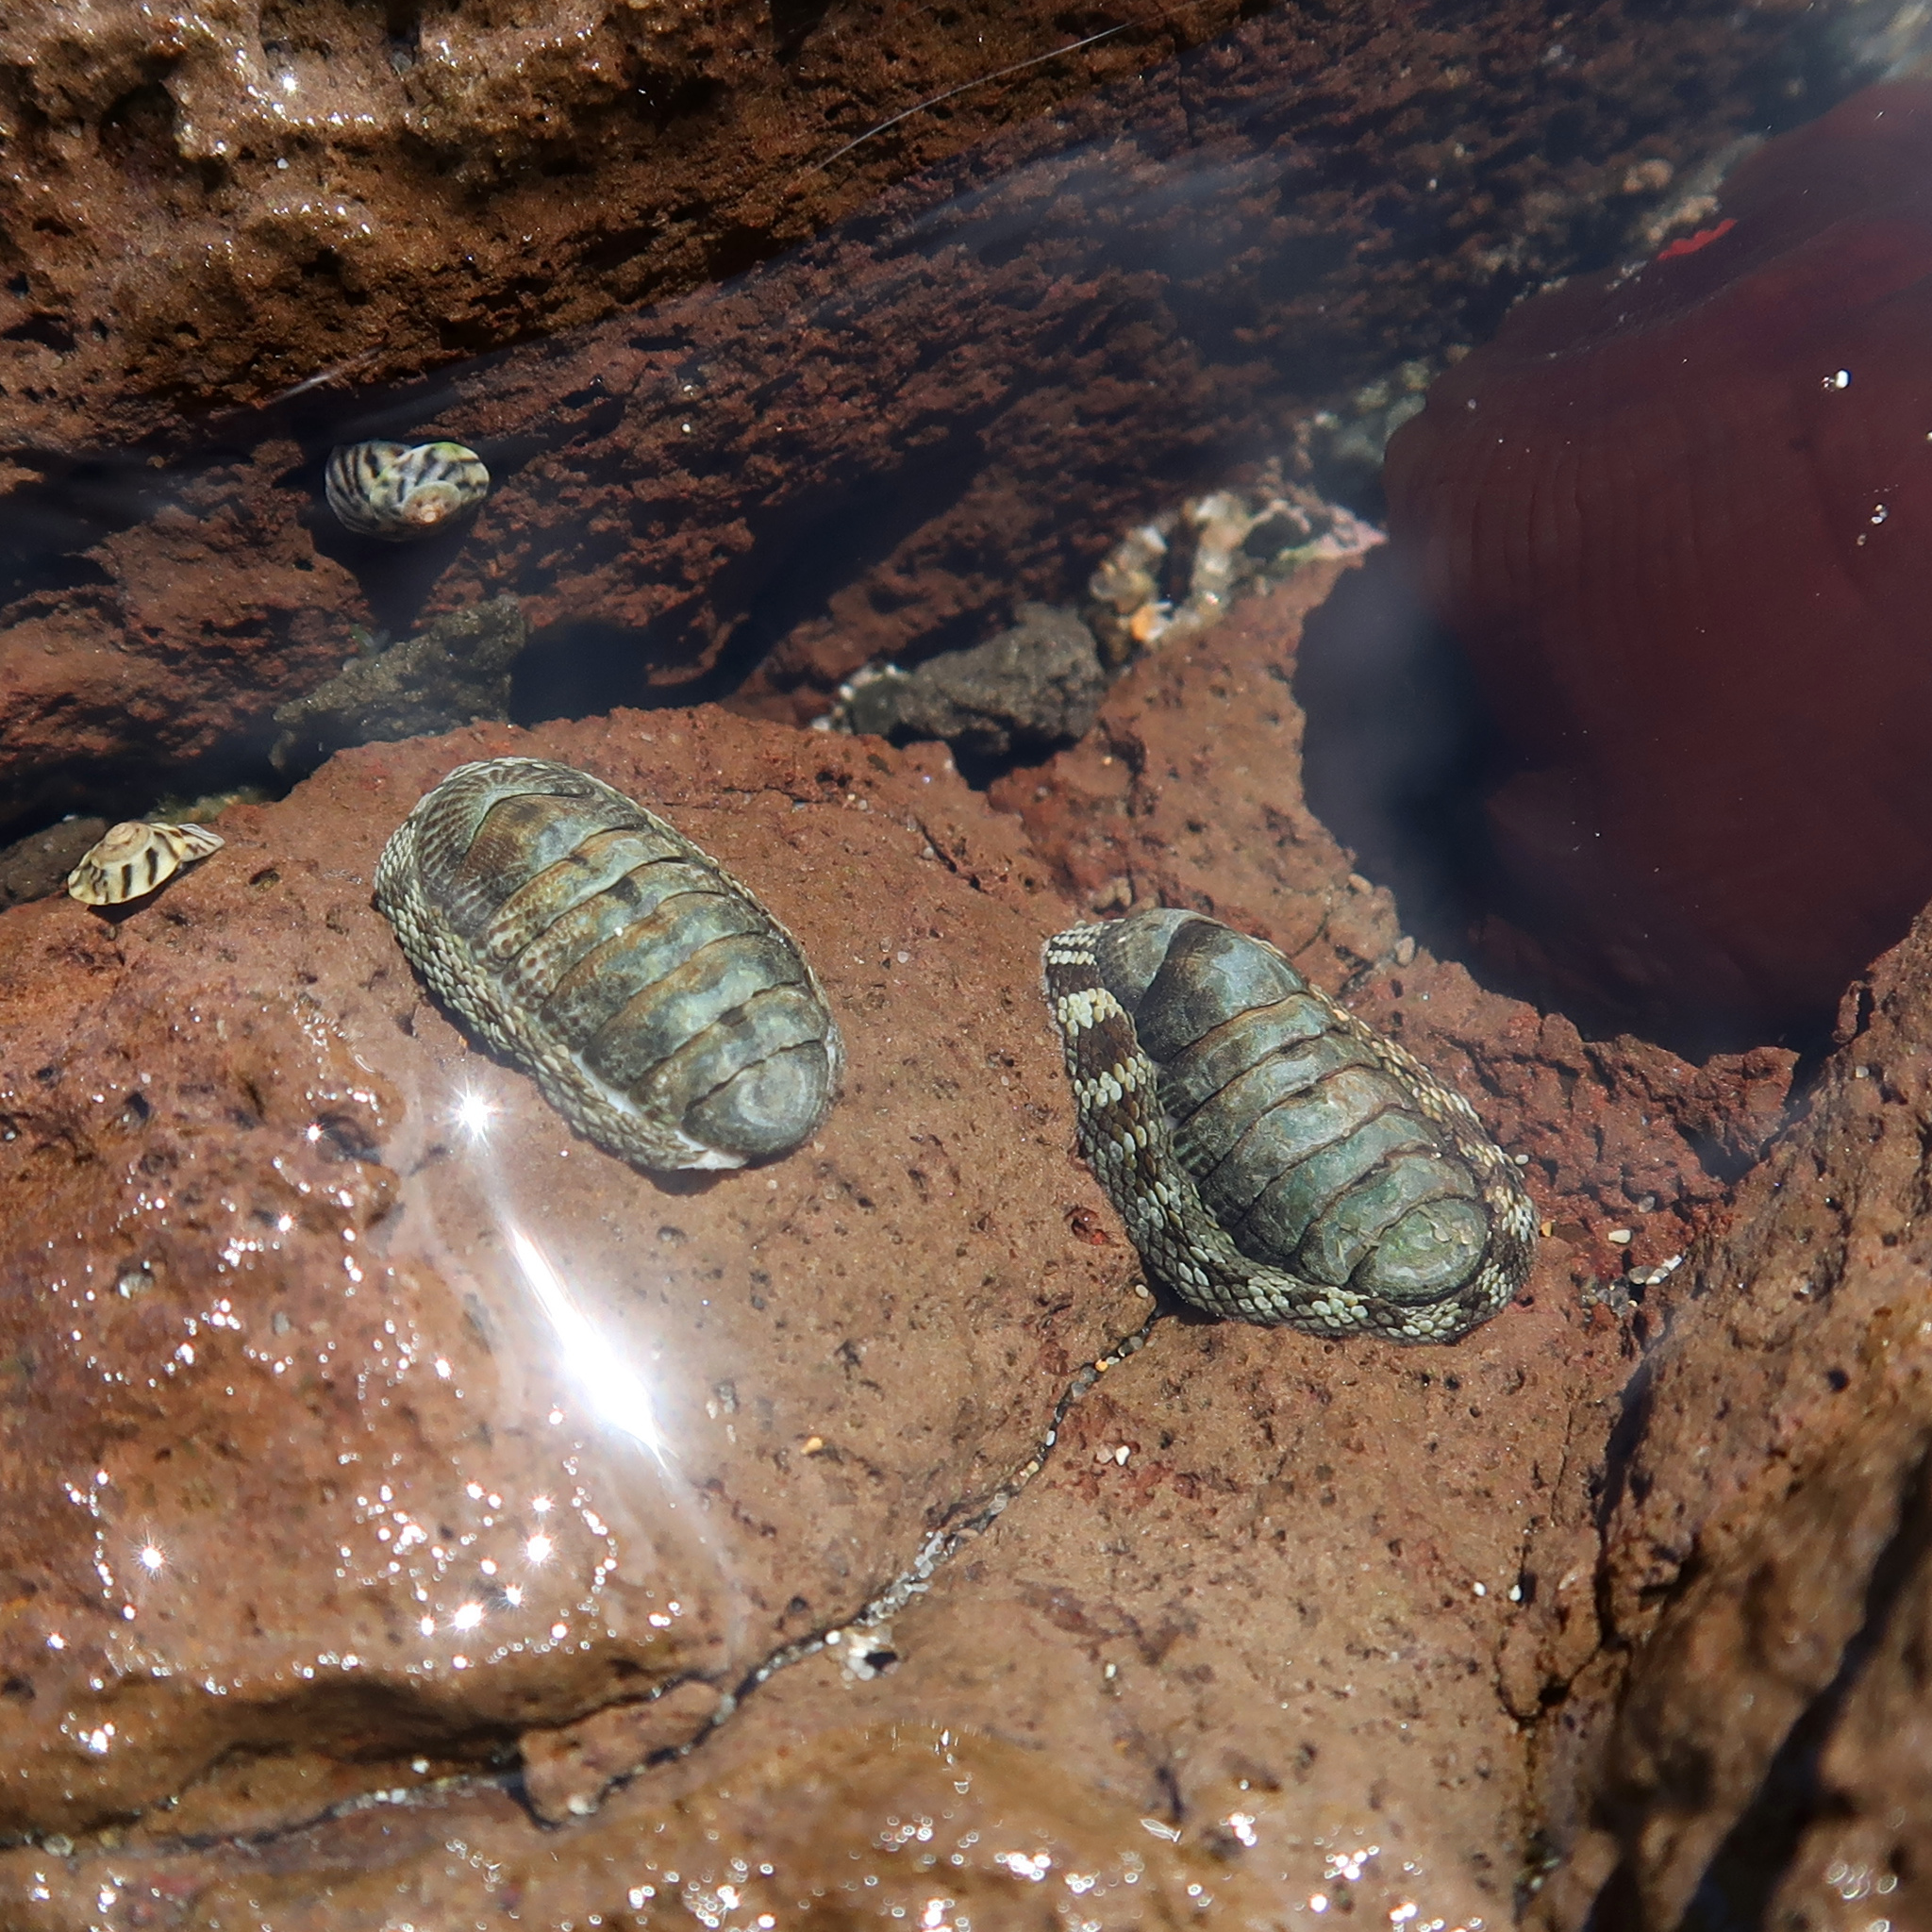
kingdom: Animalia
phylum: Mollusca
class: Polyplacophora
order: Chitonida
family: Chitonidae
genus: Sypharochiton
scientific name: Sypharochiton pelliserpentis
